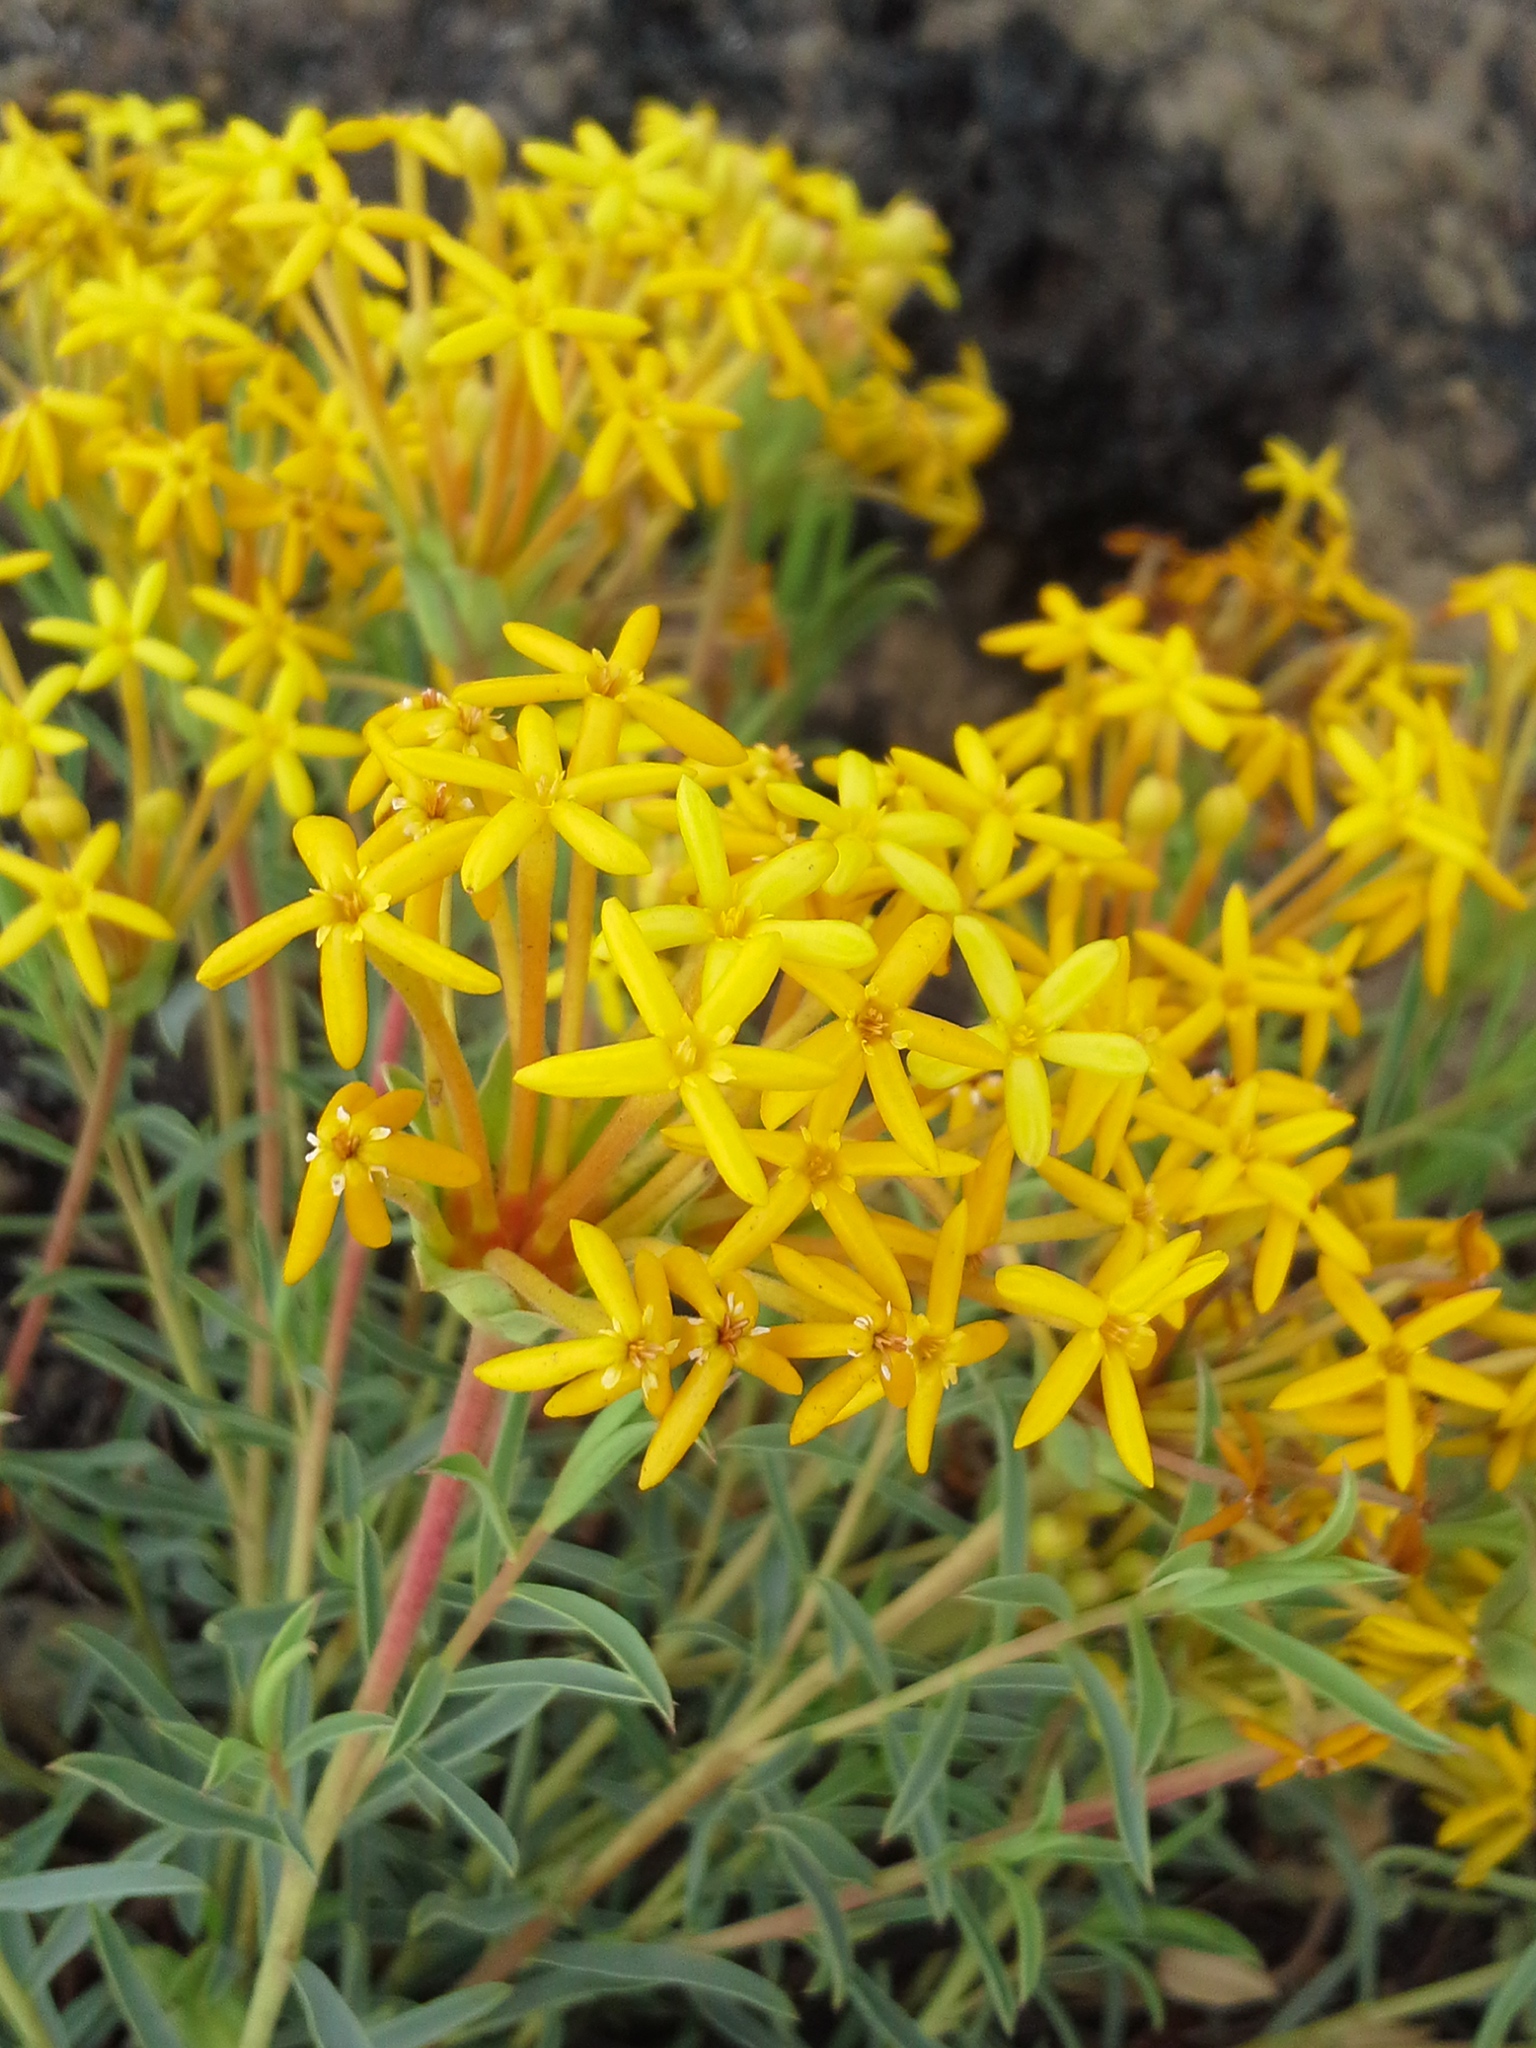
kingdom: Plantae
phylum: Tracheophyta
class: Magnoliopsida
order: Malvales
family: Thymelaeaceae
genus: Gnidia
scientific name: Gnidia capitata
